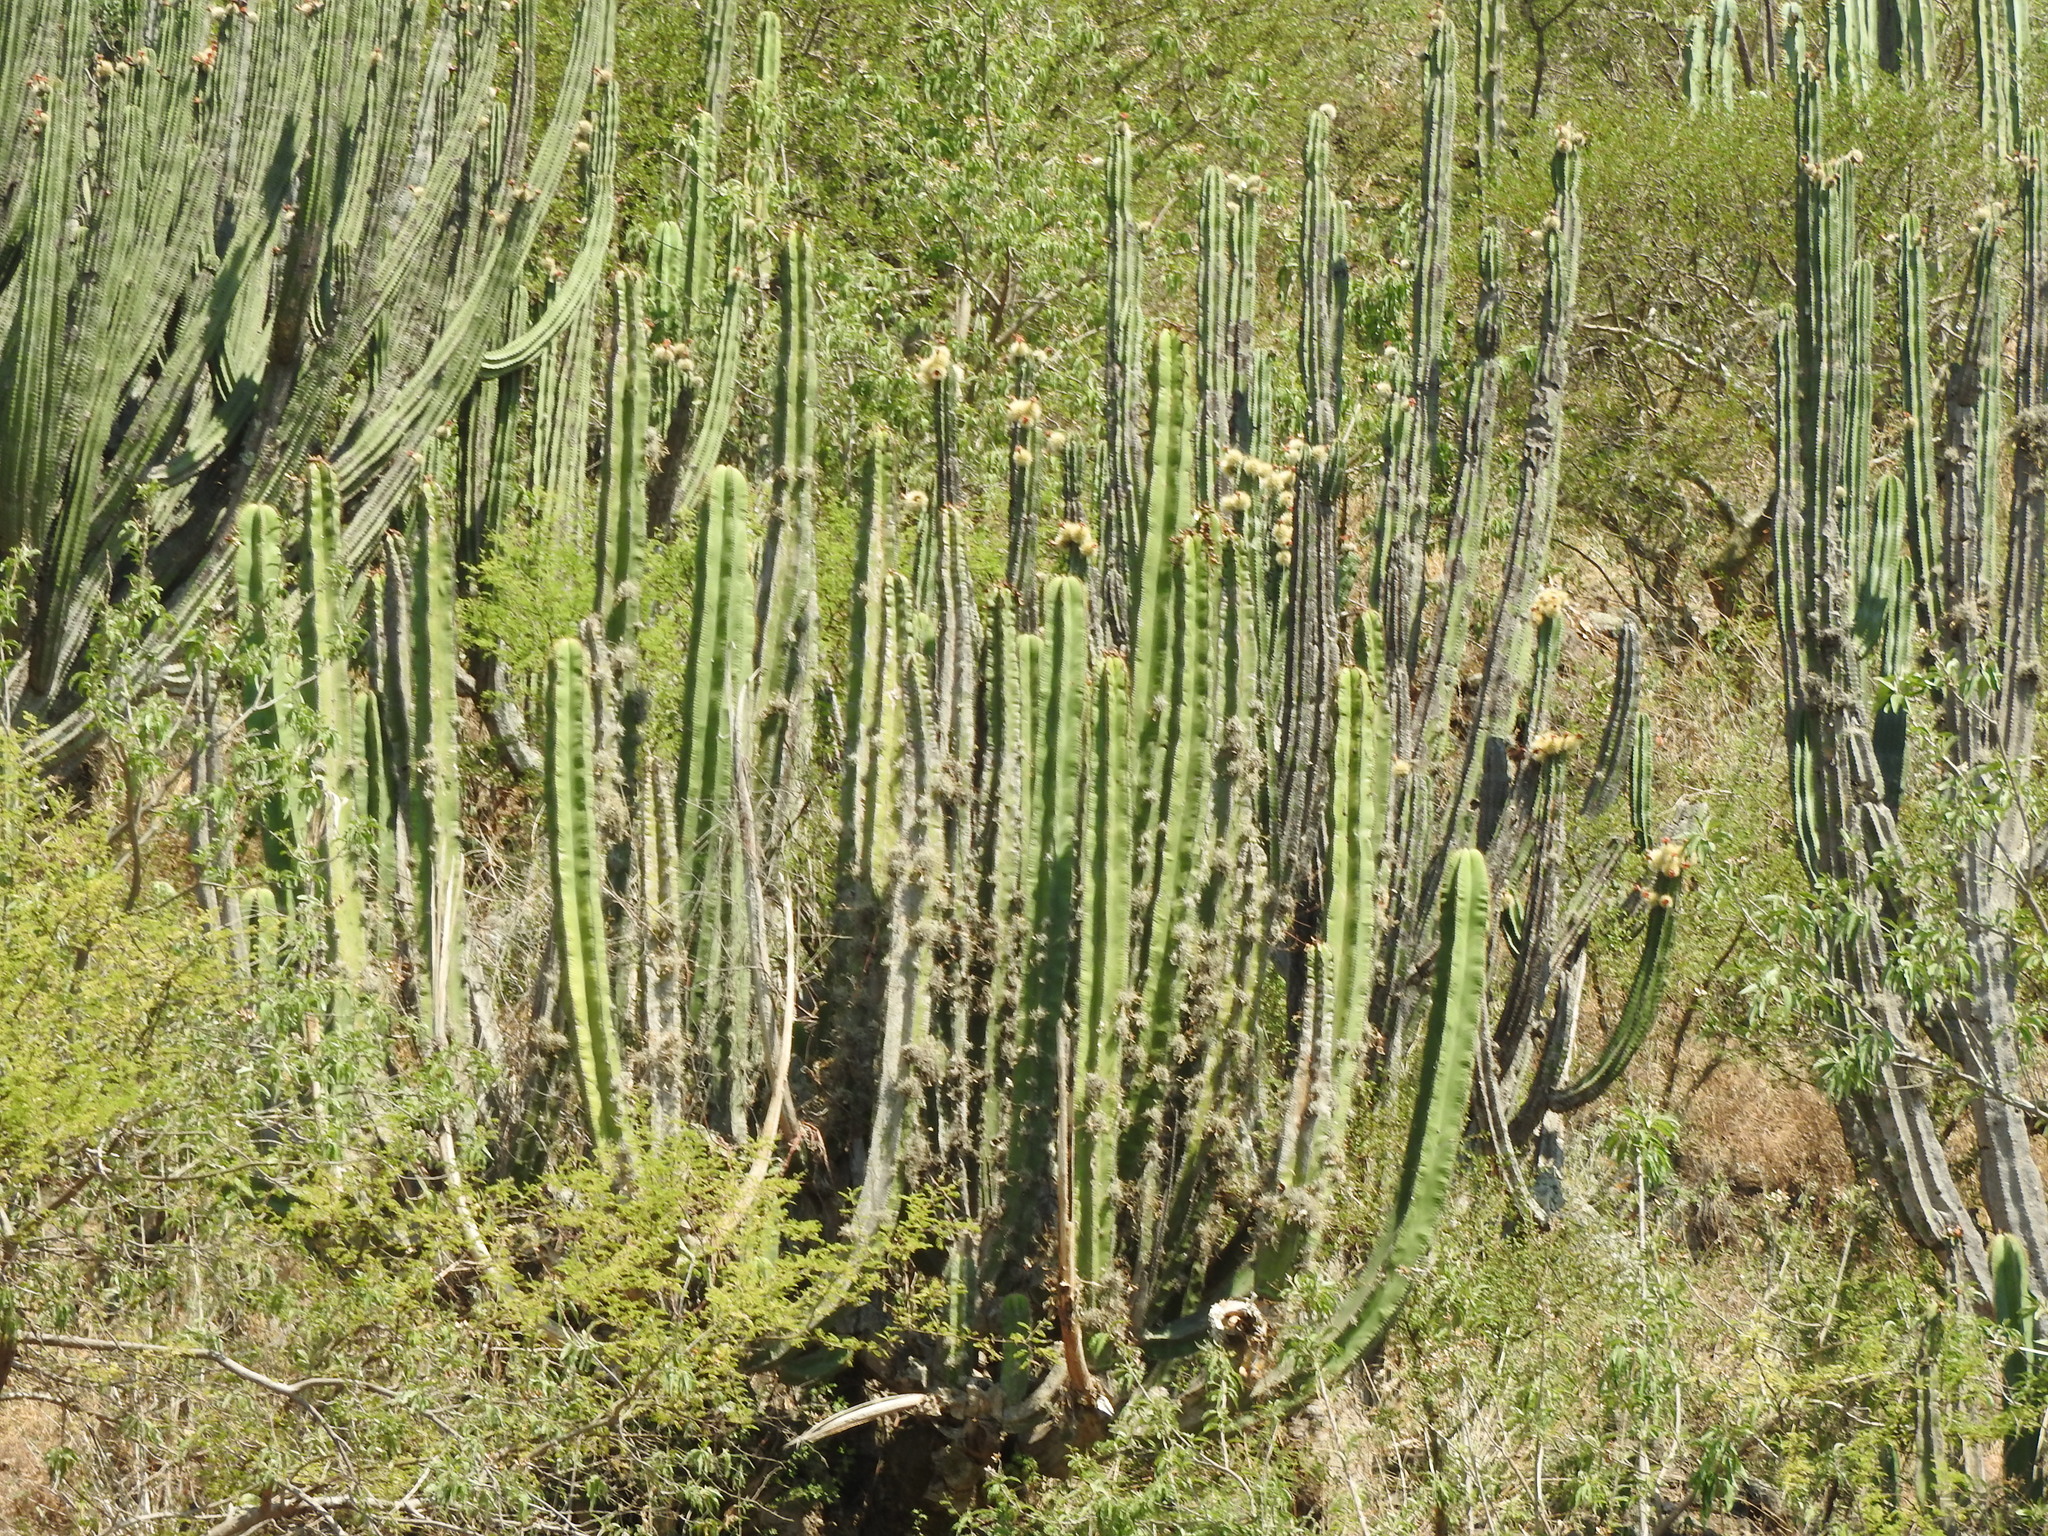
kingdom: Plantae
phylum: Tracheophyta
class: Magnoliopsida
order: Caryophyllales
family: Cactaceae
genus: Stenocereus
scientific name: Stenocereus dumortieri
